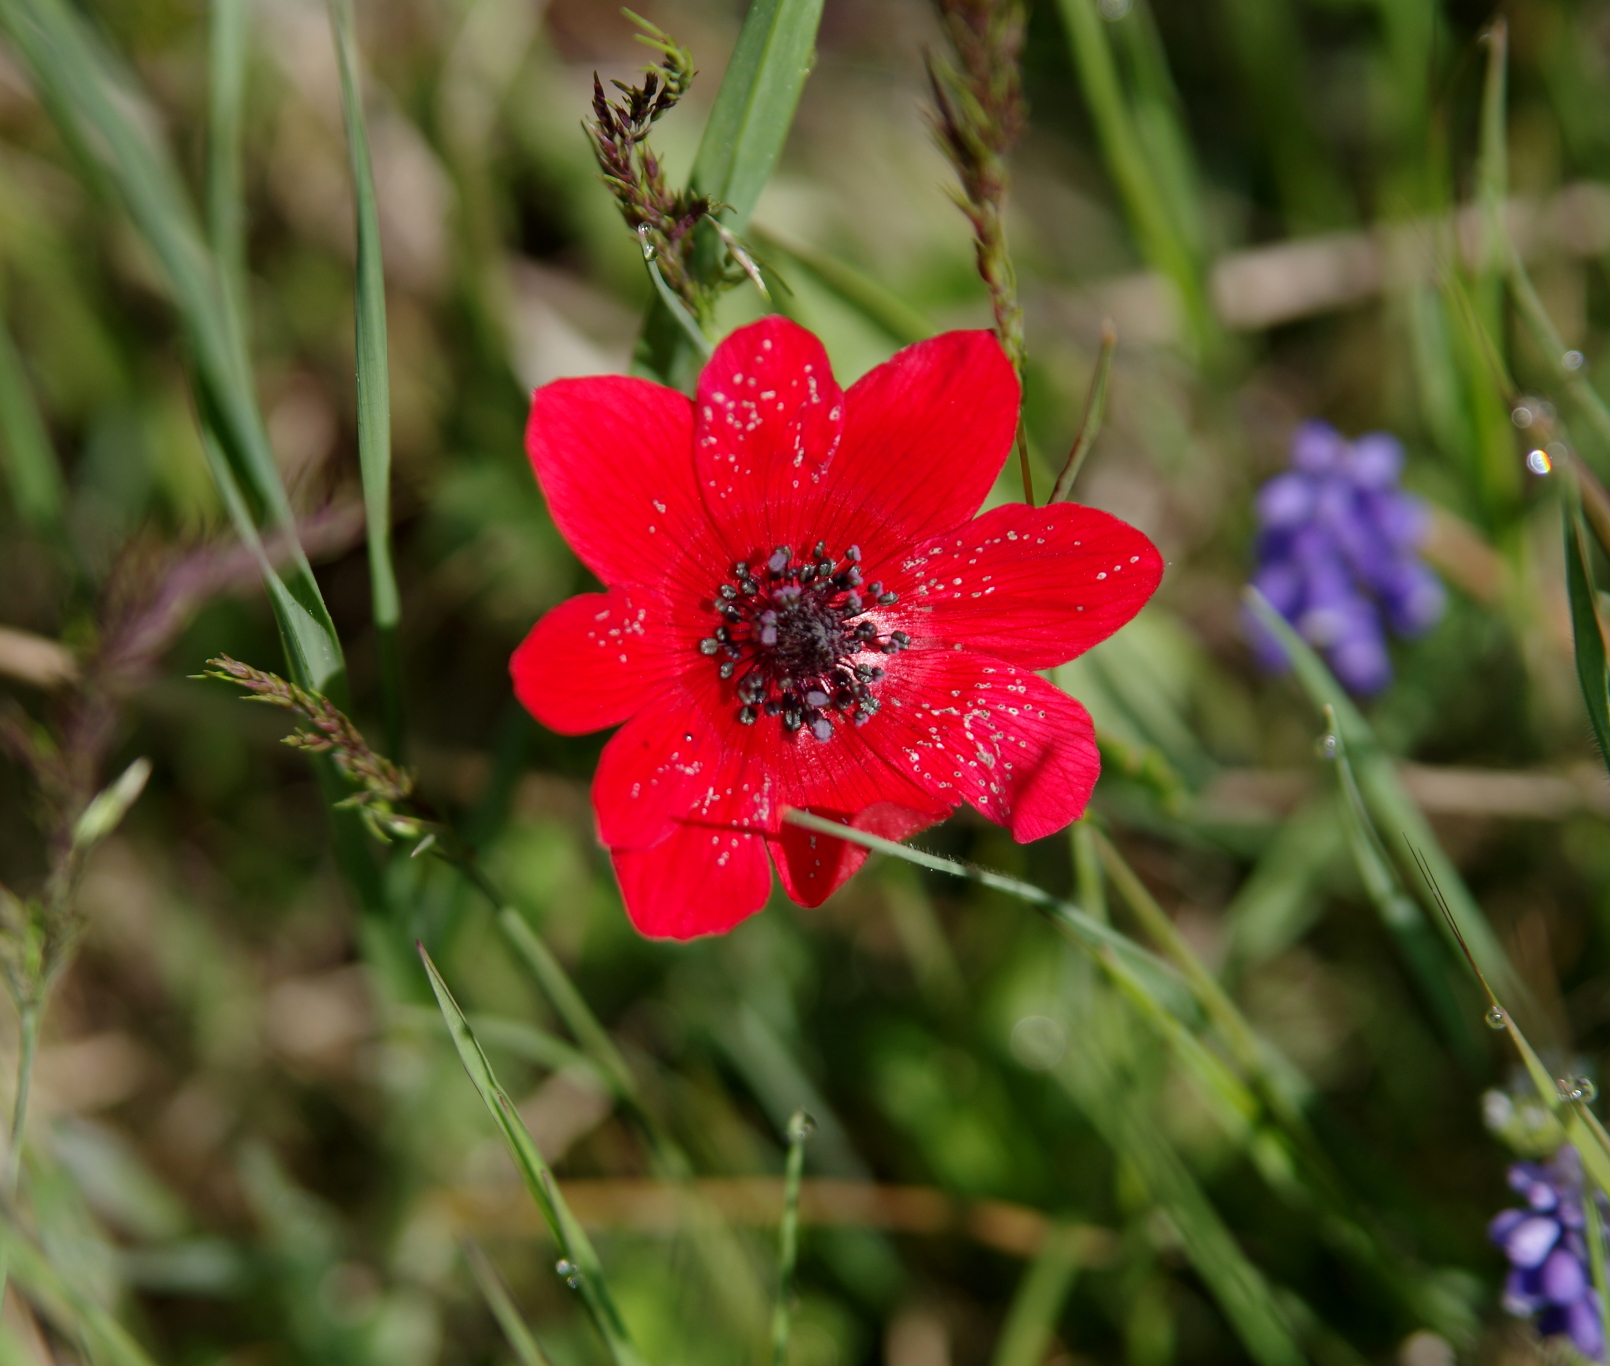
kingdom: Plantae
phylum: Tracheophyta
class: Magnoliopsida
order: Ranunculales
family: Ranunculaceae
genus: Anemone
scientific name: Anemone pavonina
